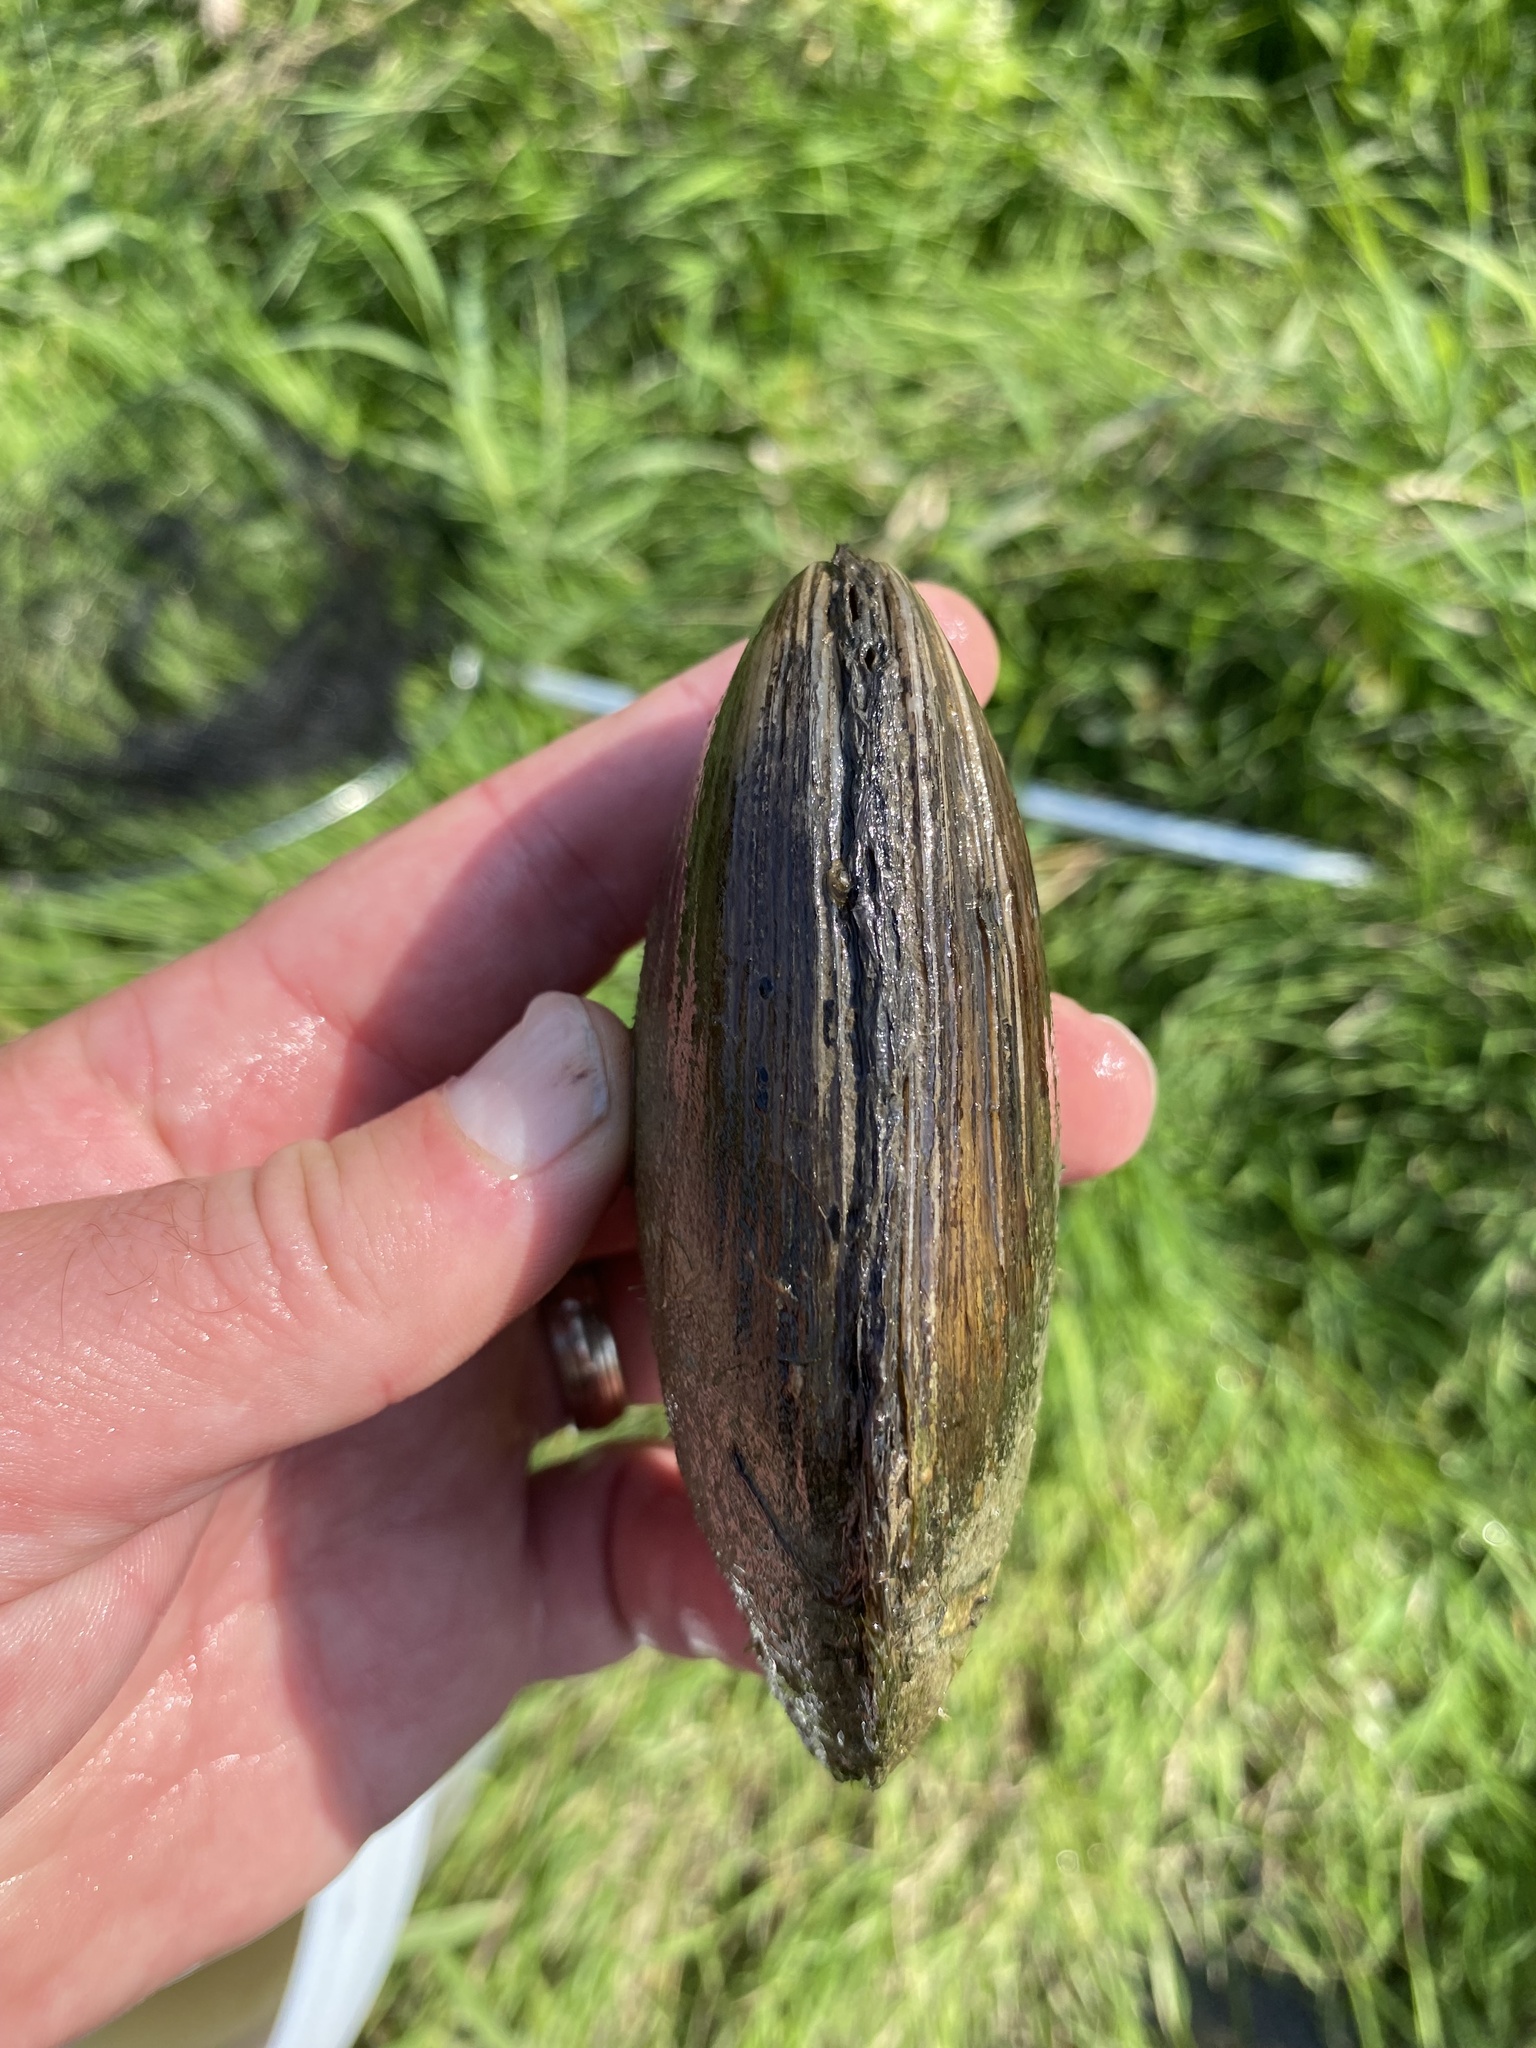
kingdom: Animalia
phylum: Mollusca
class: Bivalvia
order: Unionida
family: Unionidae
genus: Lampsilis
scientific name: Lampsilis siliquoidea
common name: Fatmucket
